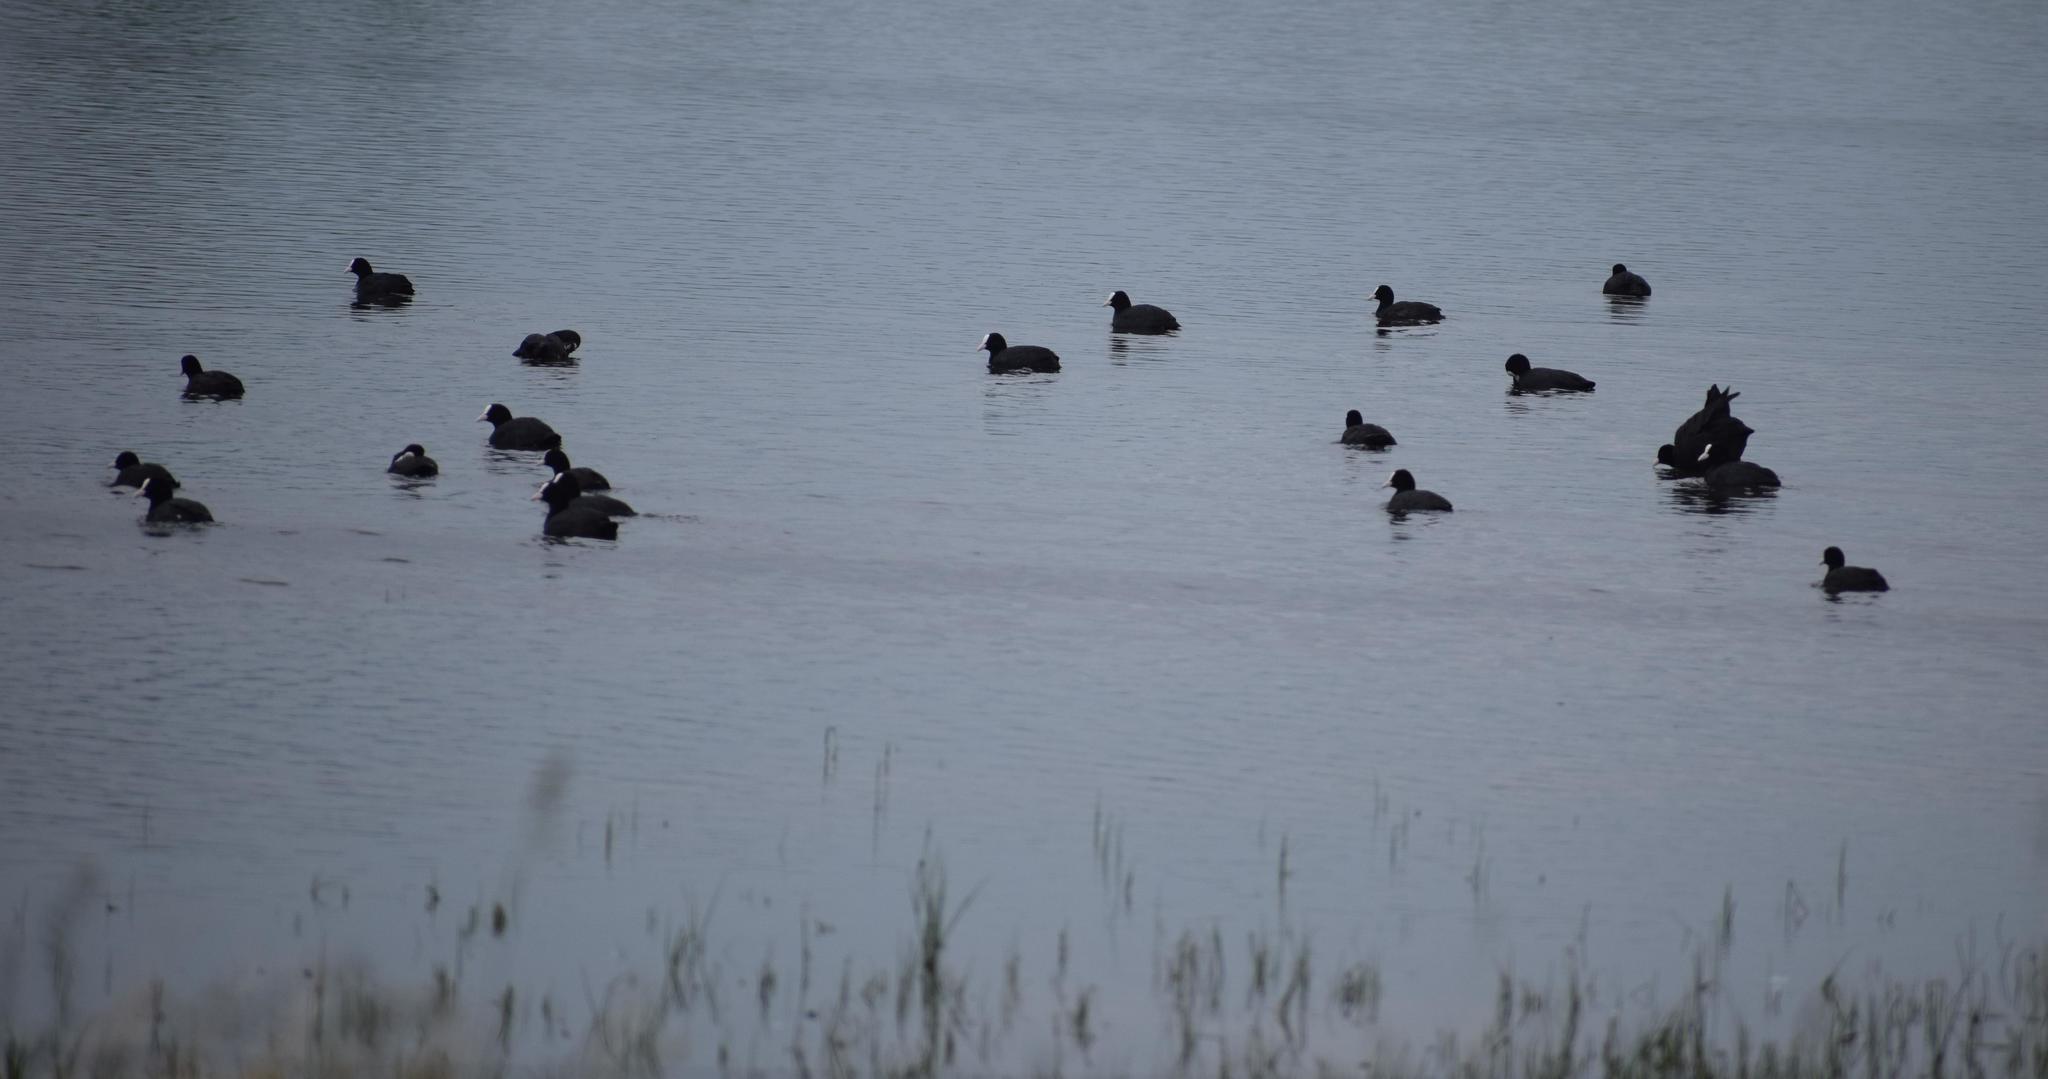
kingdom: Animalia
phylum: Chordata
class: Aves
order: Gruiformes
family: Rallidae
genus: Fulica
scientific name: Fulica atra
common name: Eurasian coot
